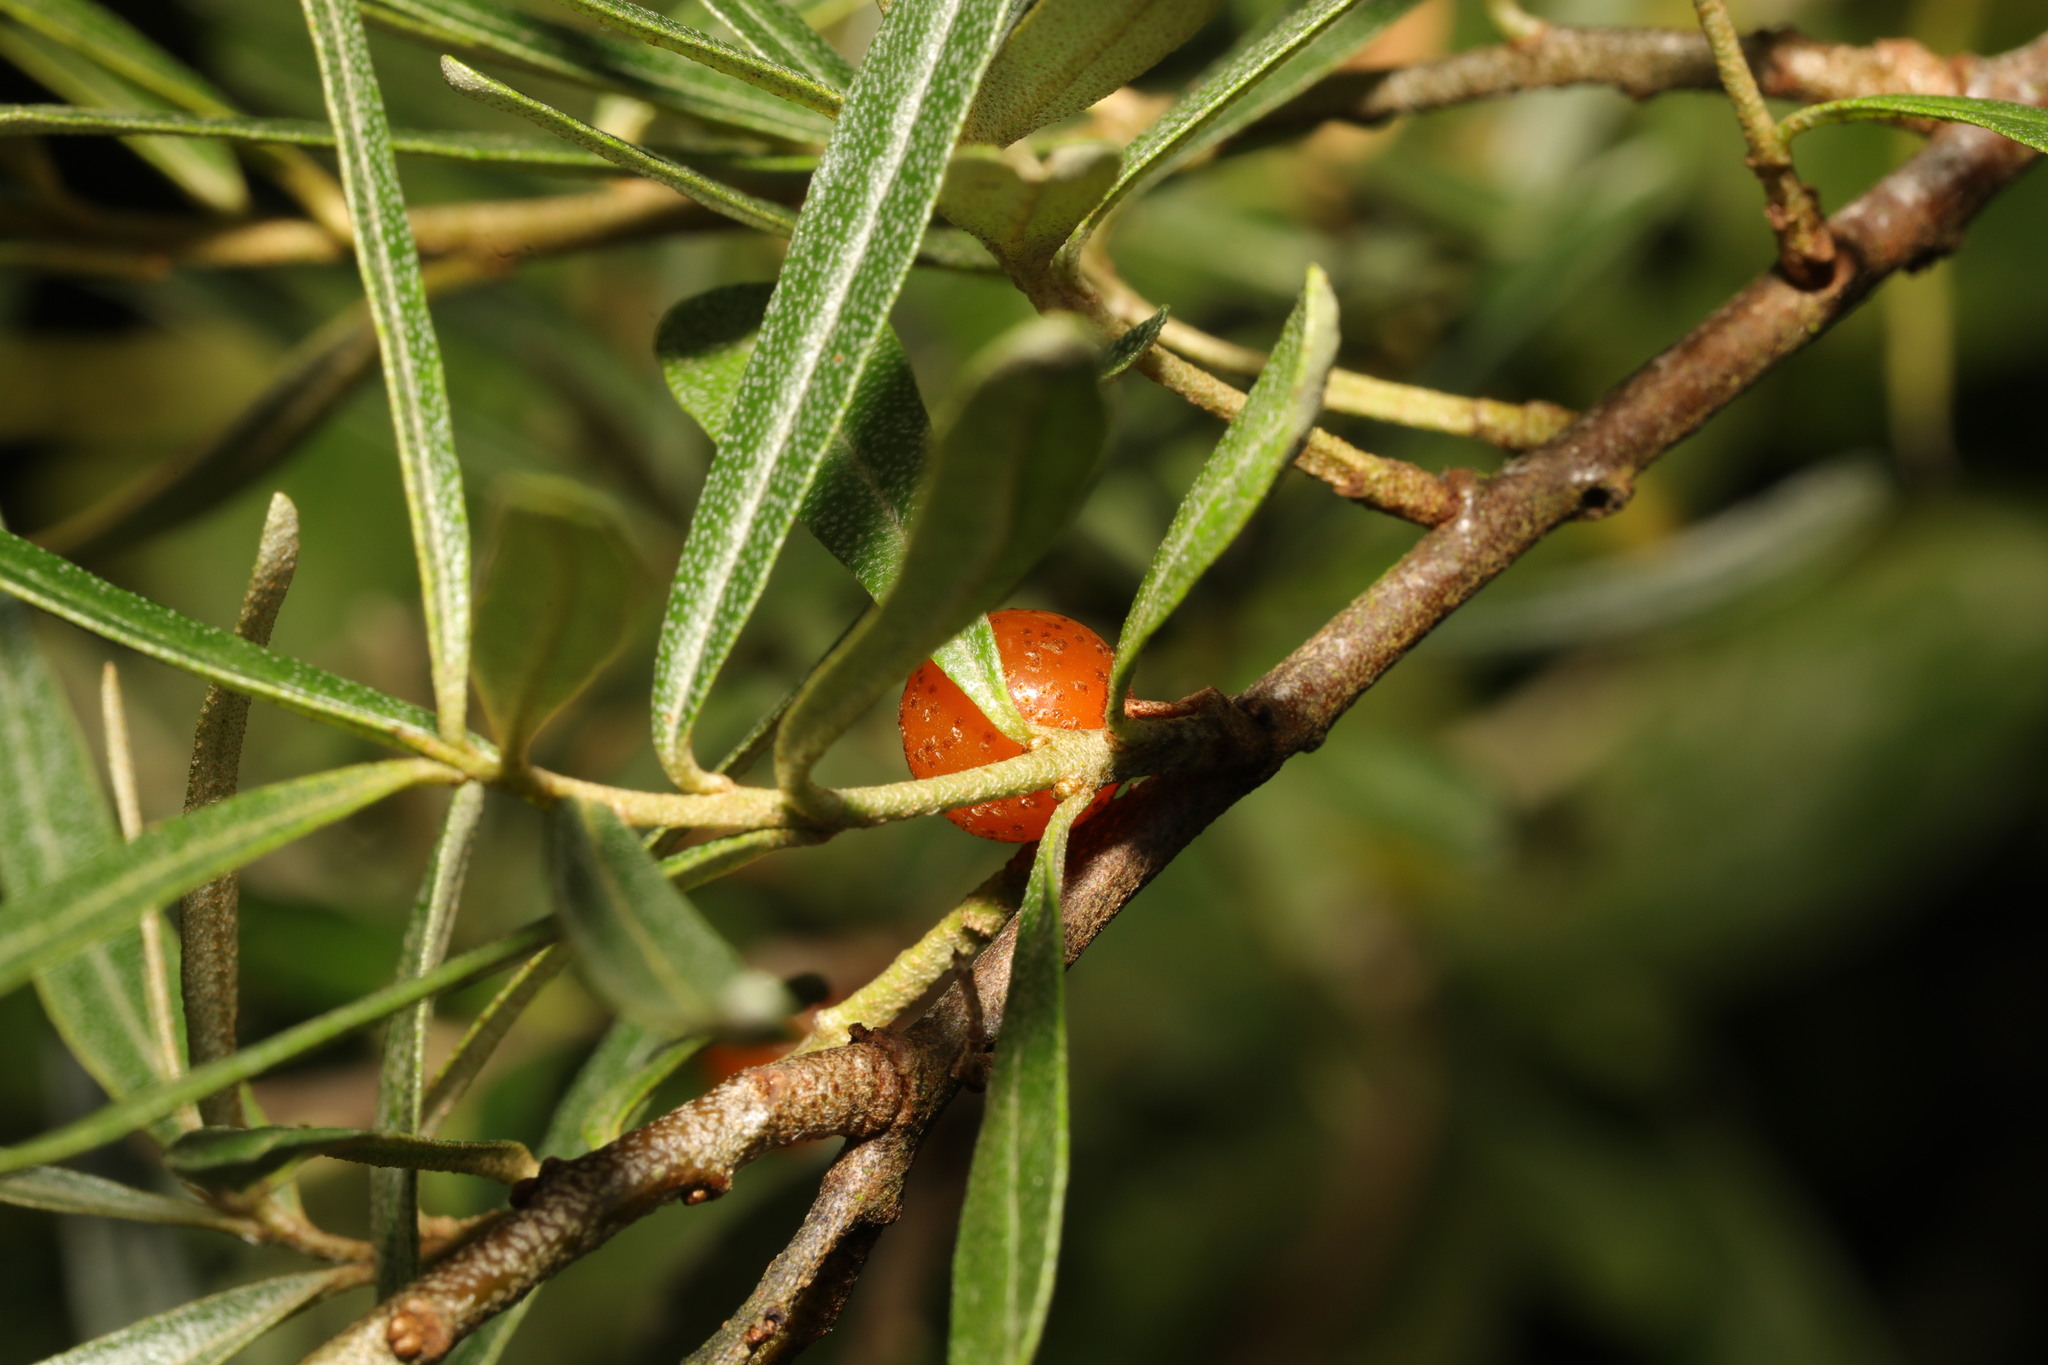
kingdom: Plantae
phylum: Tracheophyta
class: Magnoliopsida
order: Rosales
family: Elaeagnaceae
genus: Hippophae
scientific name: Hippophae rhamnoides
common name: Sea-buckthorn
